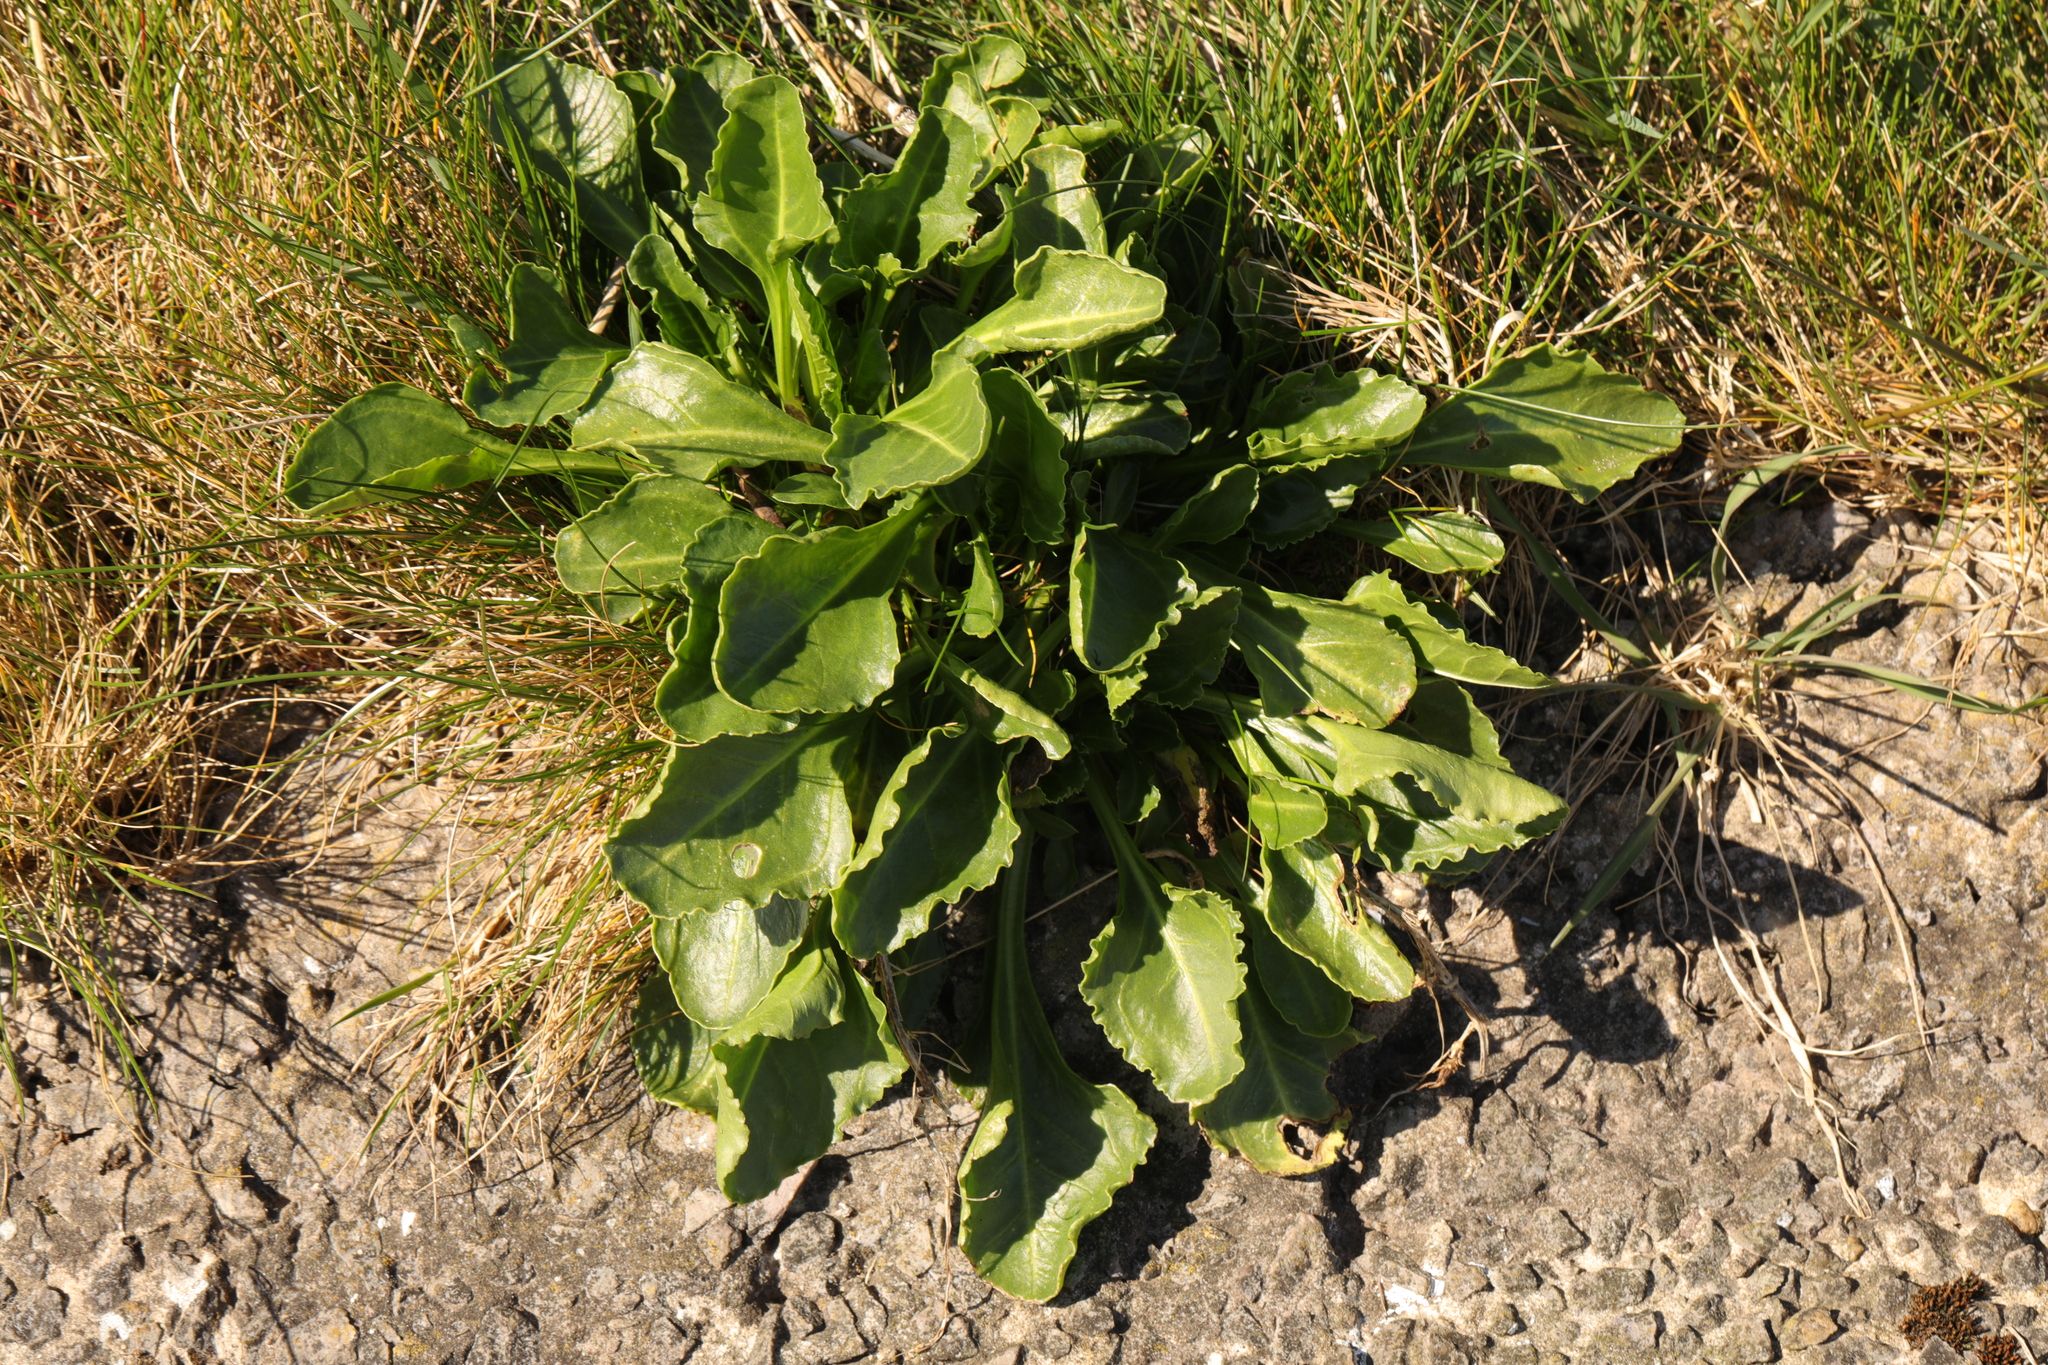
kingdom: Plantae
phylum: Tracheophyta
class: Magnoliopsida
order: Caryophyllales
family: Amaranthaceae
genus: Beta
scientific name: Beta vulgaris
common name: Beet
